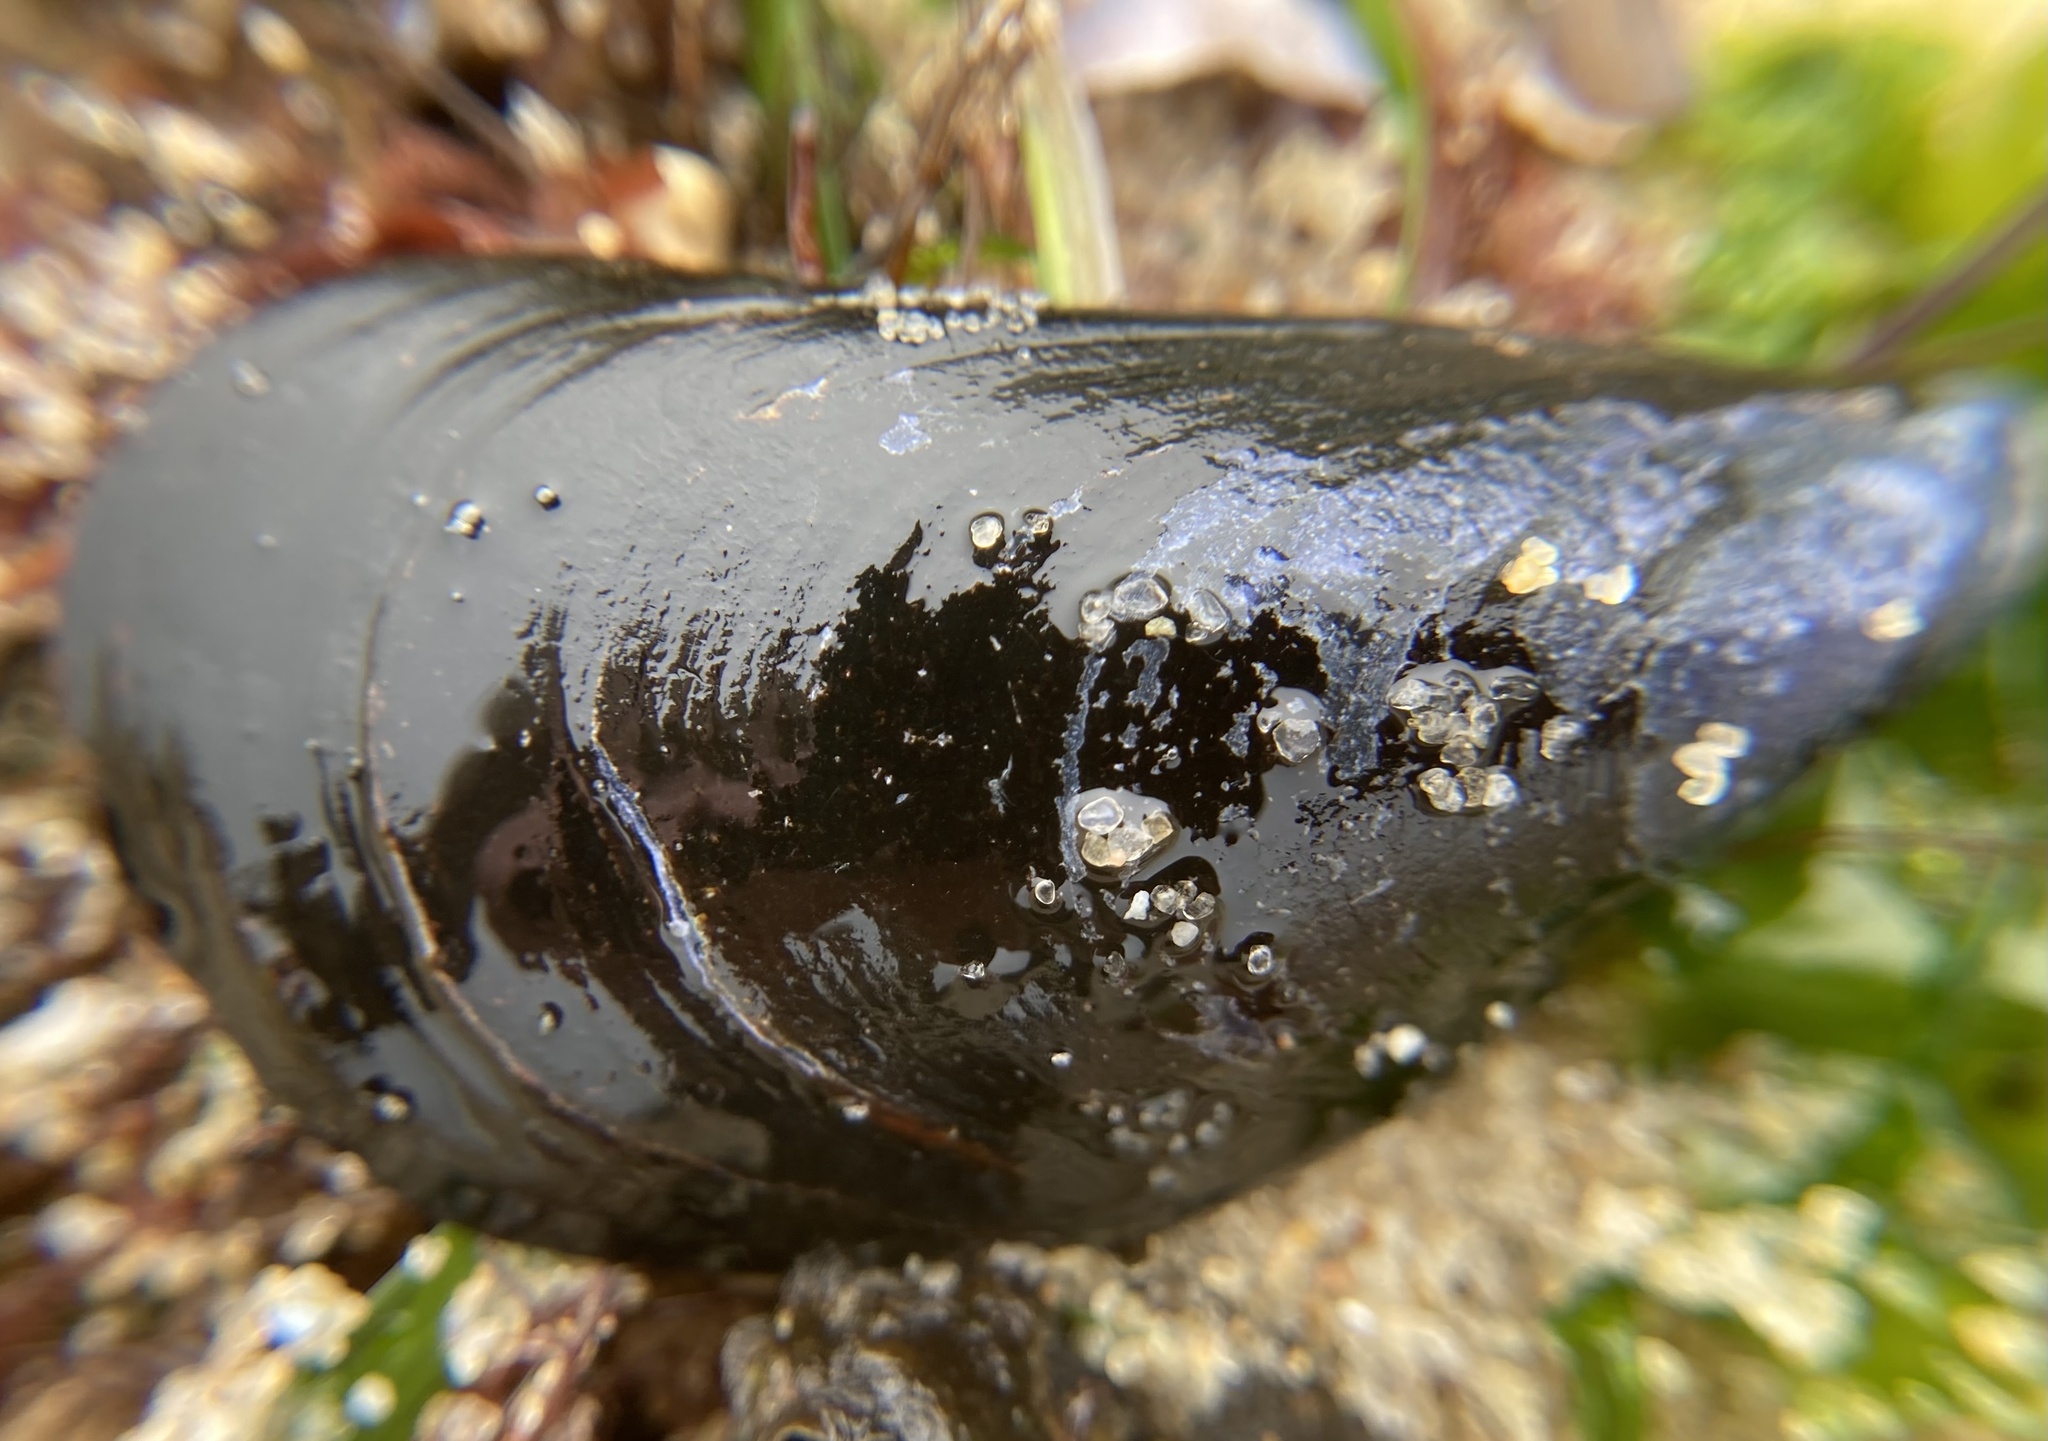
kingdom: Animalia
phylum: Mollusca
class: Bivalvia
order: Mytilida
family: Mytilidae
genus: Mytilus
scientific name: Mytilus edulis
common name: Blue mussel
